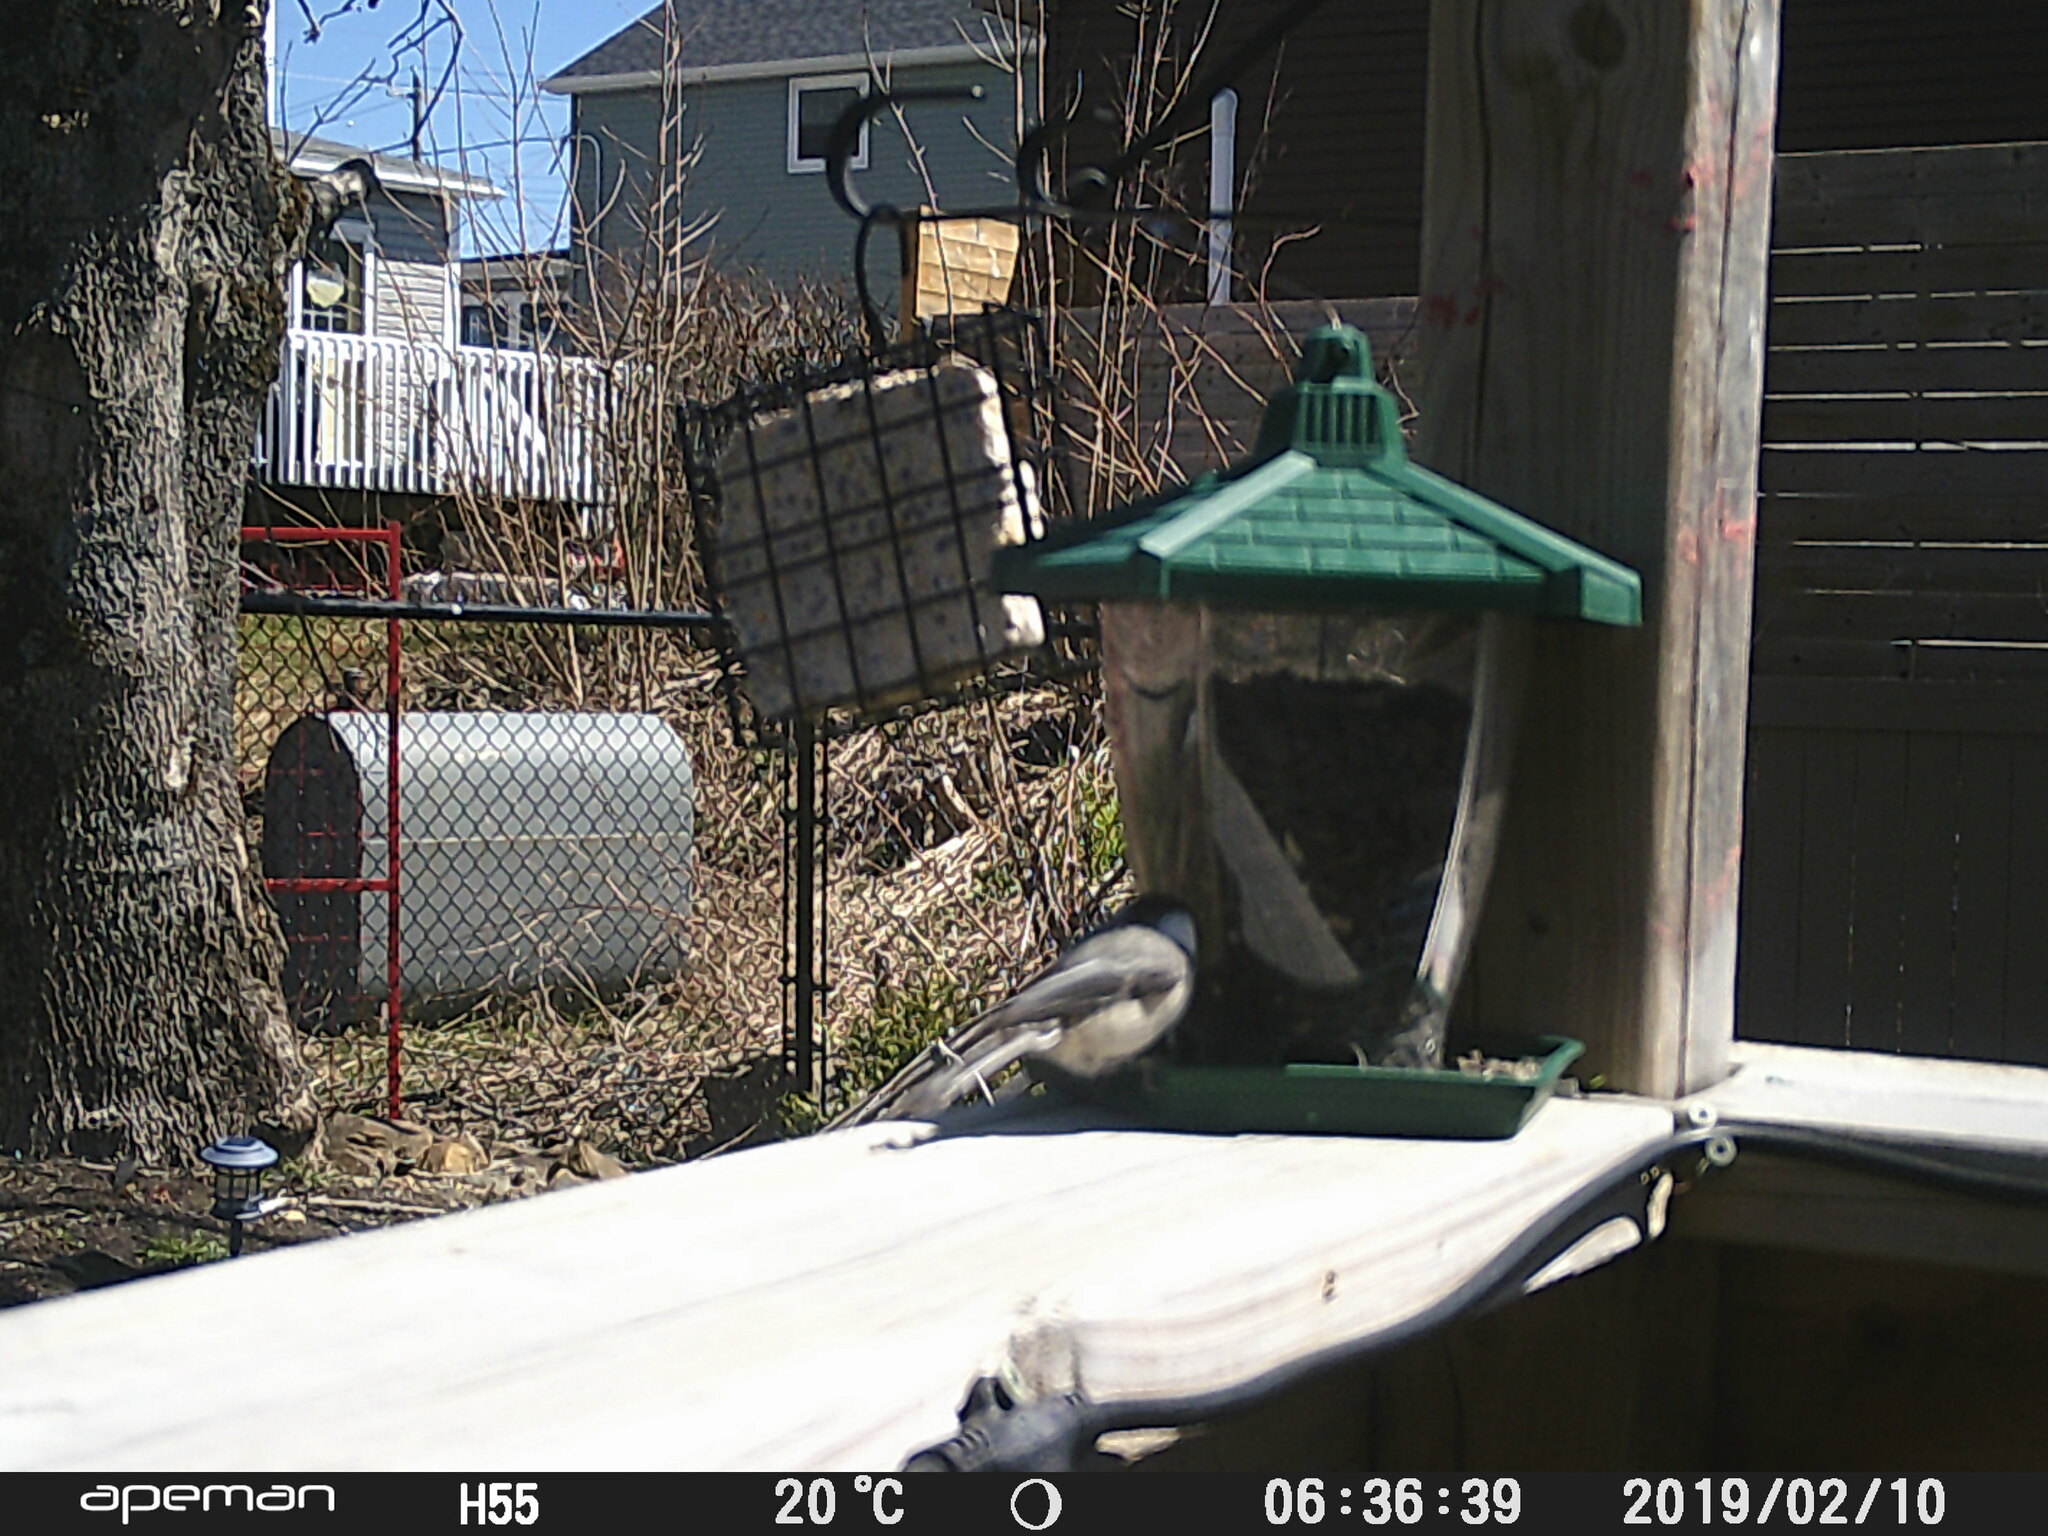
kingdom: Animalia
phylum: Chordata
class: Aves
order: Passeriformes
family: Paridae
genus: Poecile
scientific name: Poecile atricapillus
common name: Black-capped chickadee
